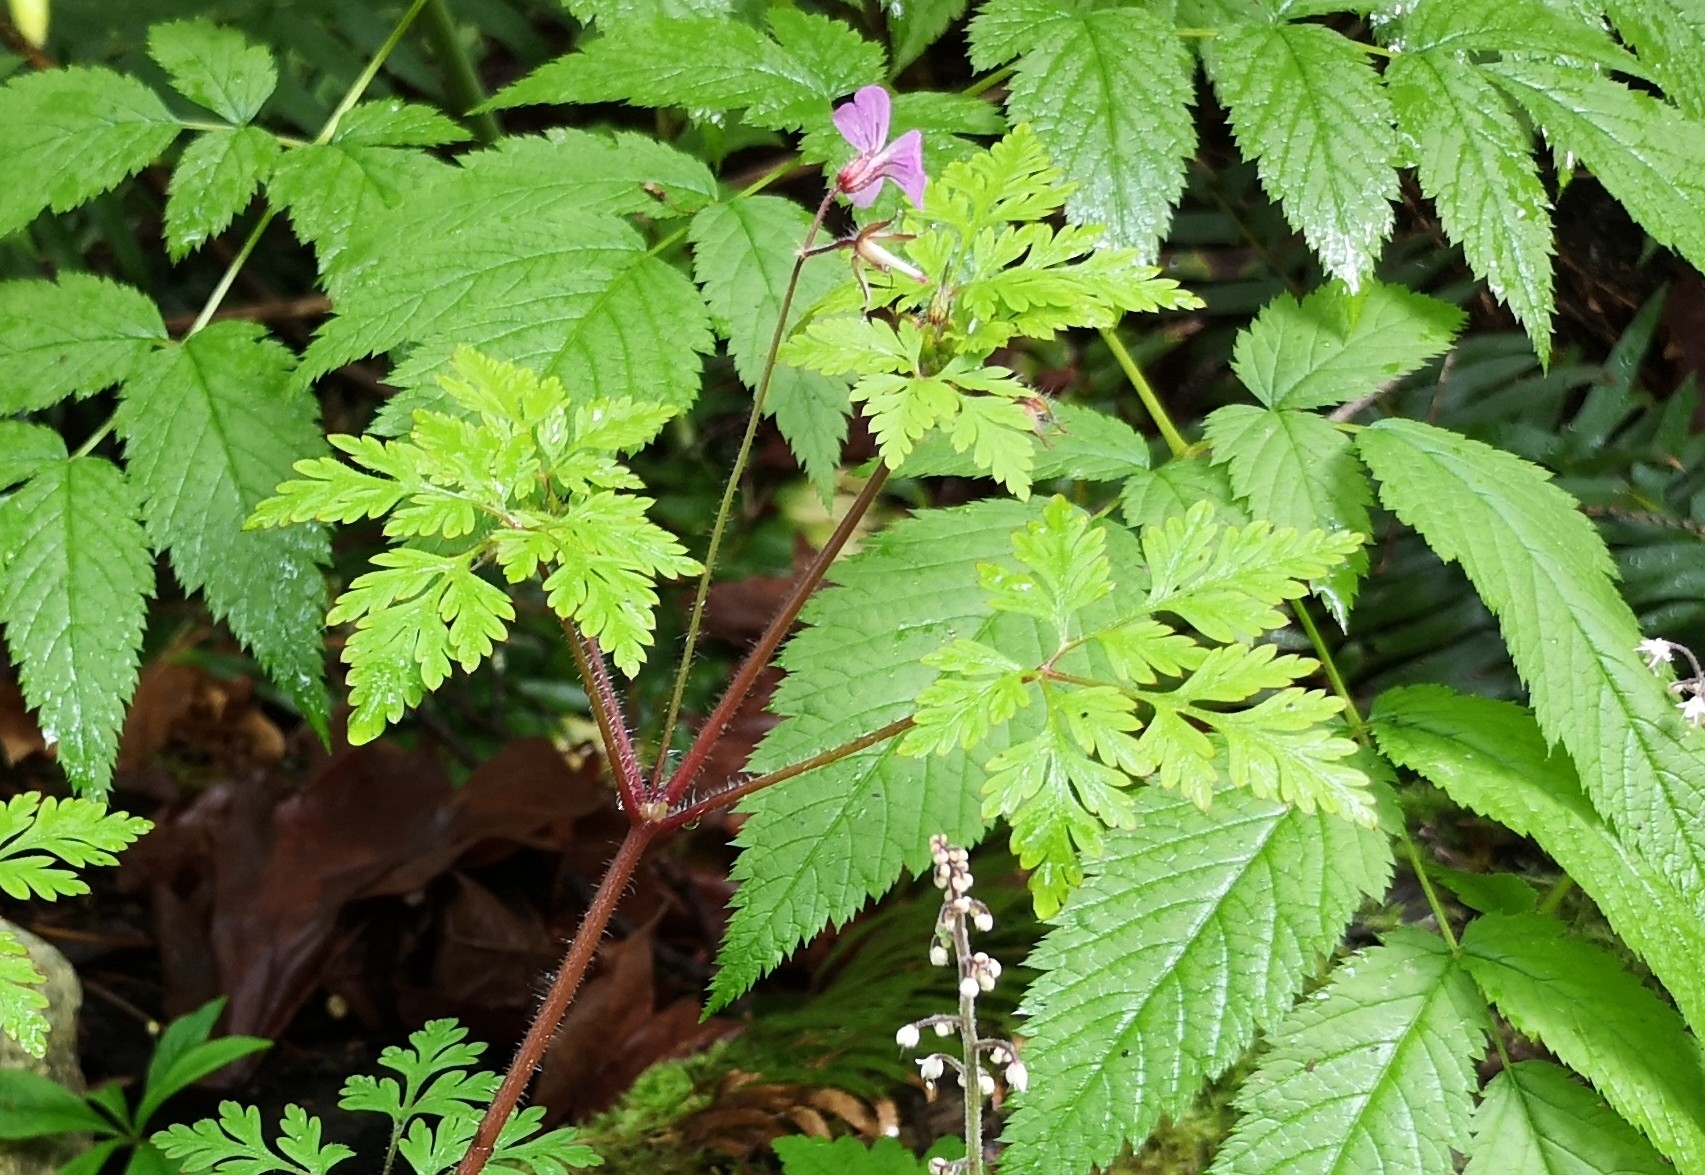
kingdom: Plantae
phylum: Tracheophyta
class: Magnoliopsida
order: Geraniales
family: Geraniaceae
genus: Geranium
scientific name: Geranium robertianum
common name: Herb-robert
